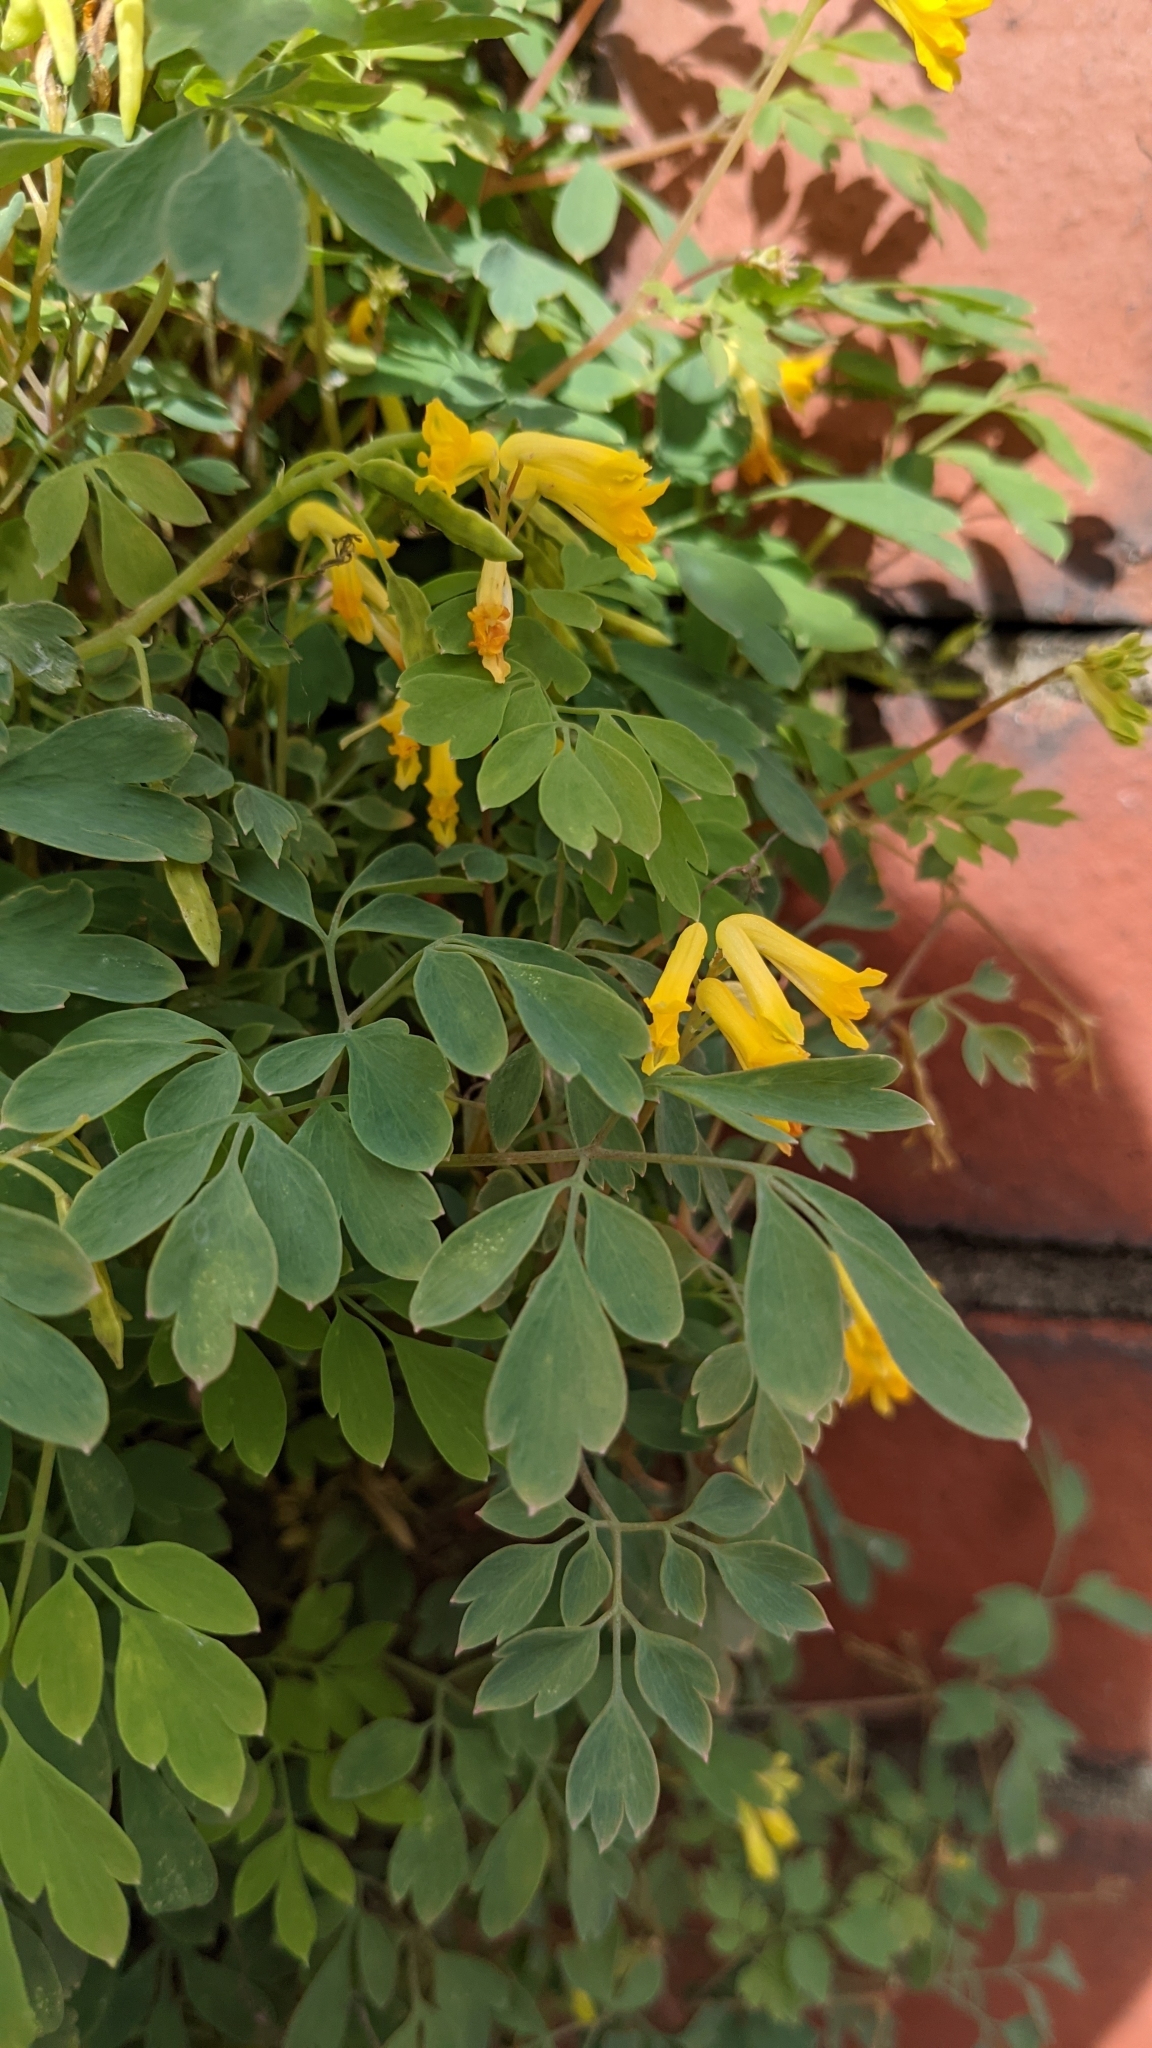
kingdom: Plantae
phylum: Tracheophyta
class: Magnoliopsida
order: Ranunculales
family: Papaveraceae
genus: Pseudofumaria
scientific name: Pseudofumaria lutea
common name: Yellow corydalis
